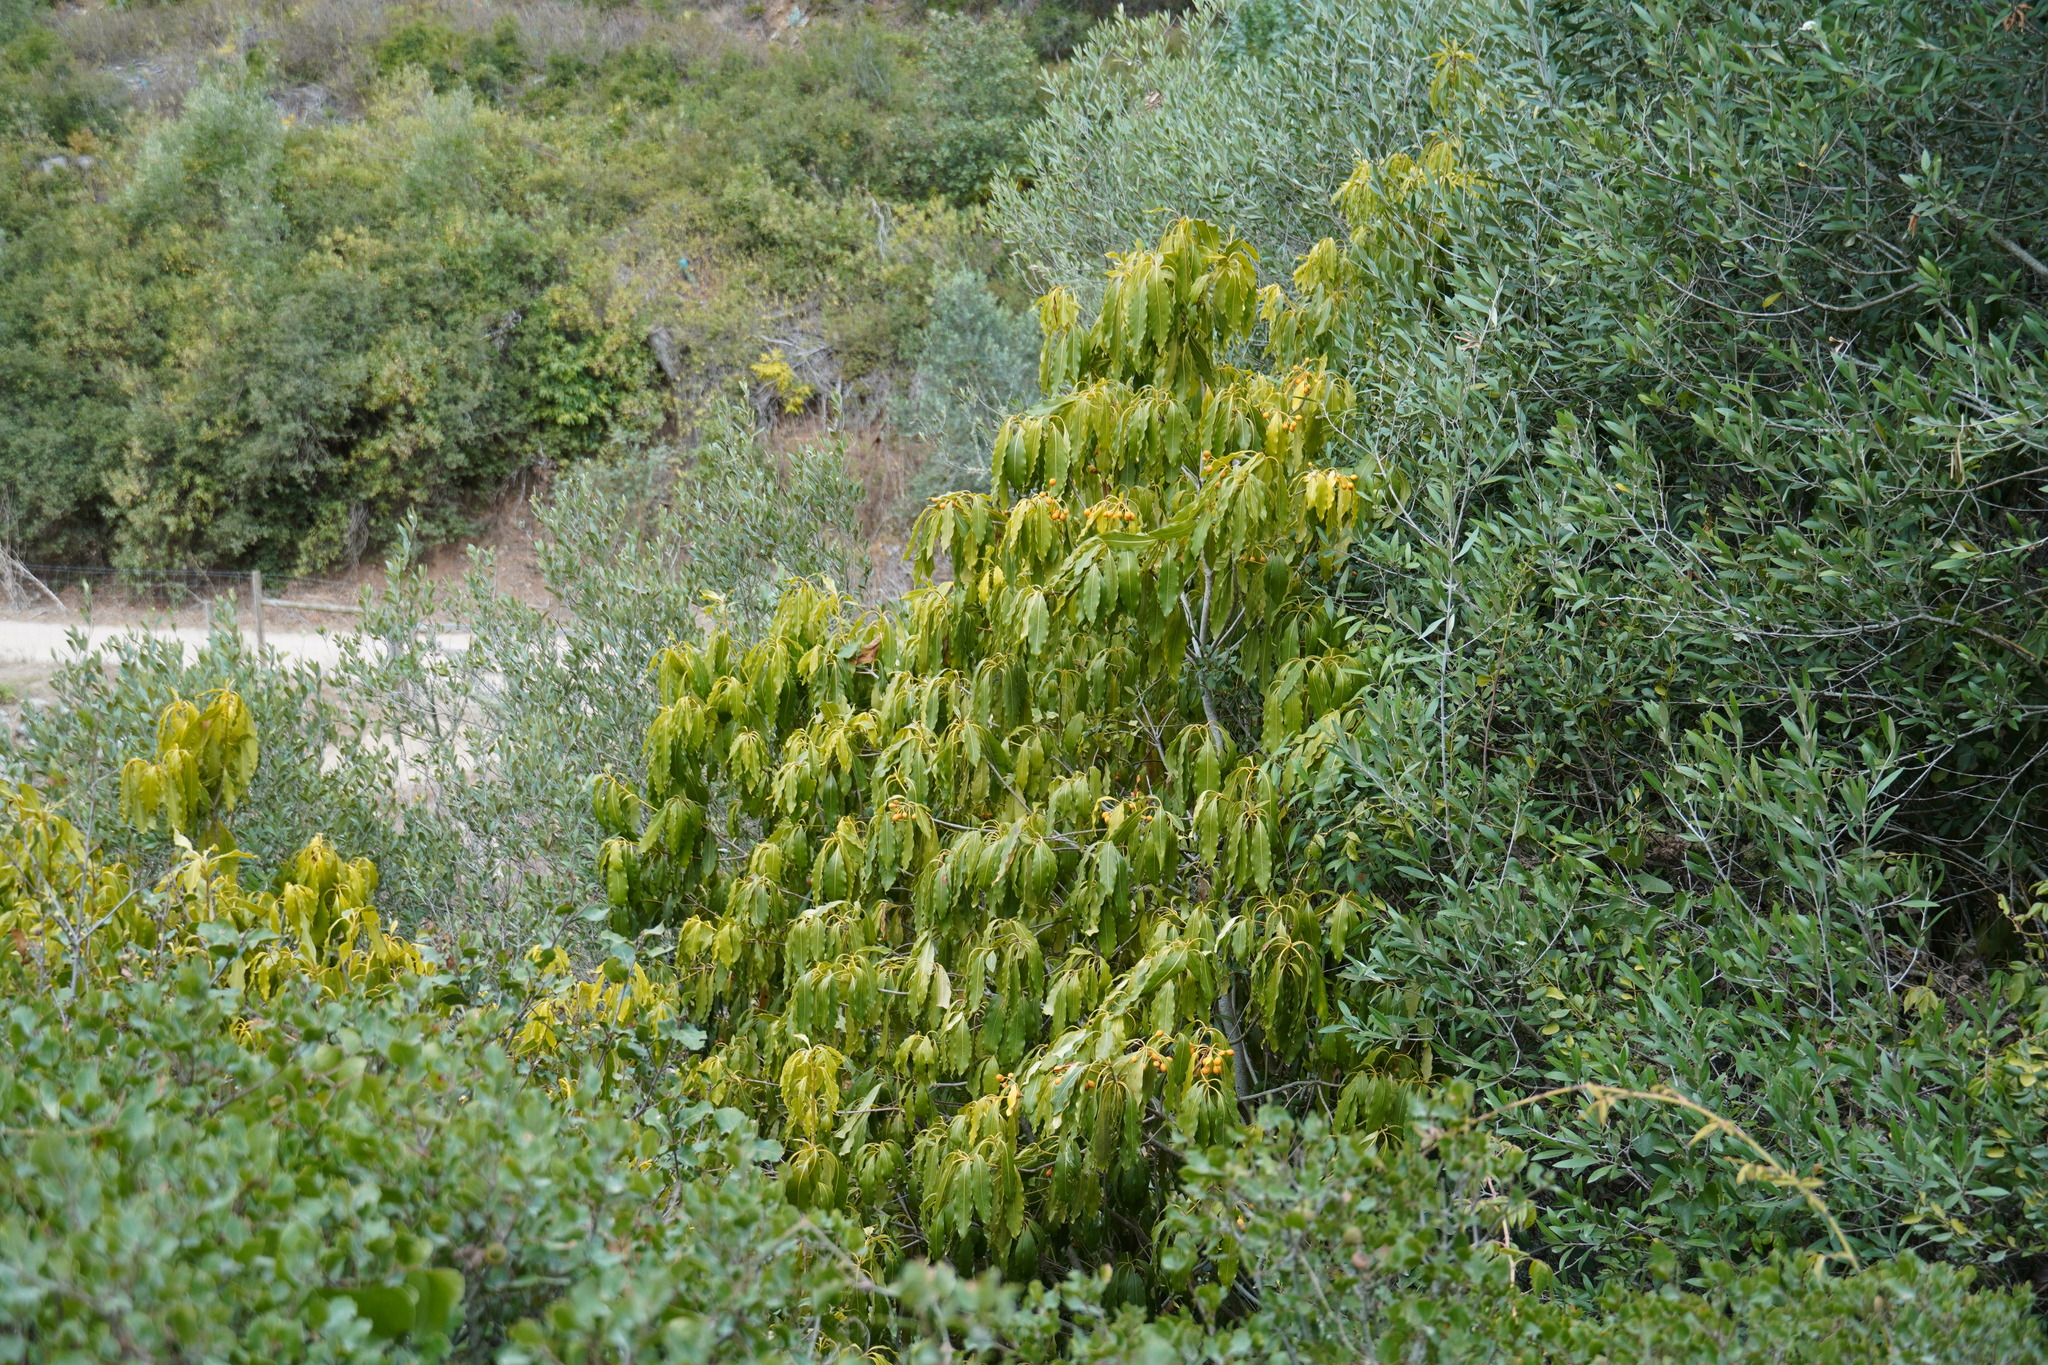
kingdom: Plantae
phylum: Tracheophyta
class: Magnoliopsida
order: Apiales
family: Pittosporaceae
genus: Pittosporum
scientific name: Pittosporum undulatum
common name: Australian cheesewood
